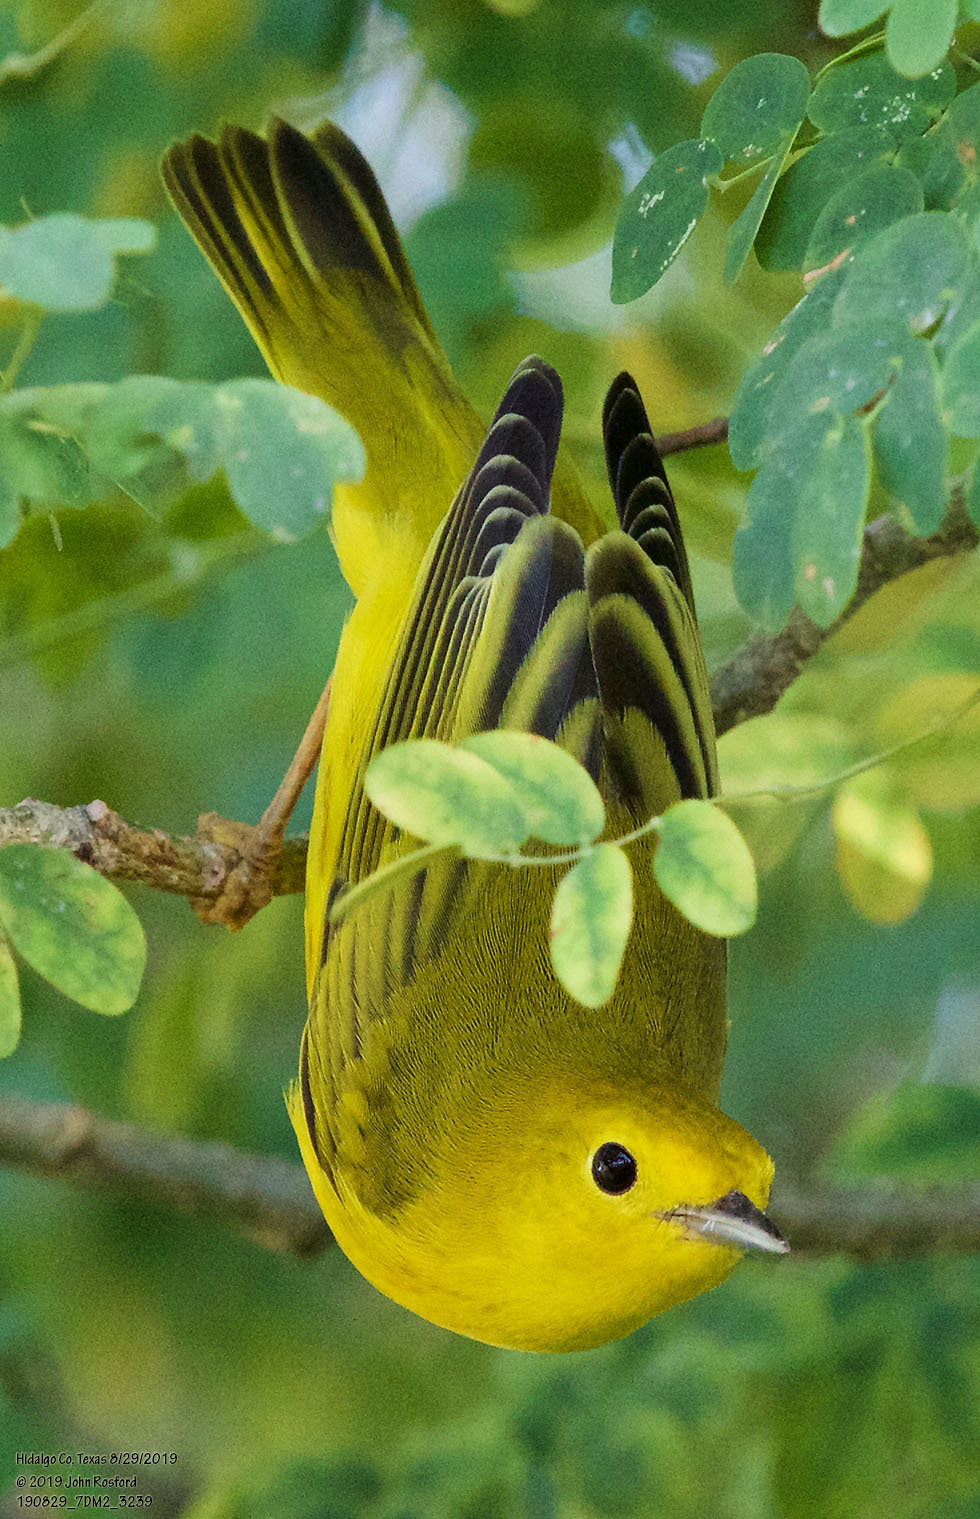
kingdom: Animalia
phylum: Chordata
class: Aves
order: Passeriformes
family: Parulidae
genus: Setophaga
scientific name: Setophaga petechia
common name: Yellow warbler
